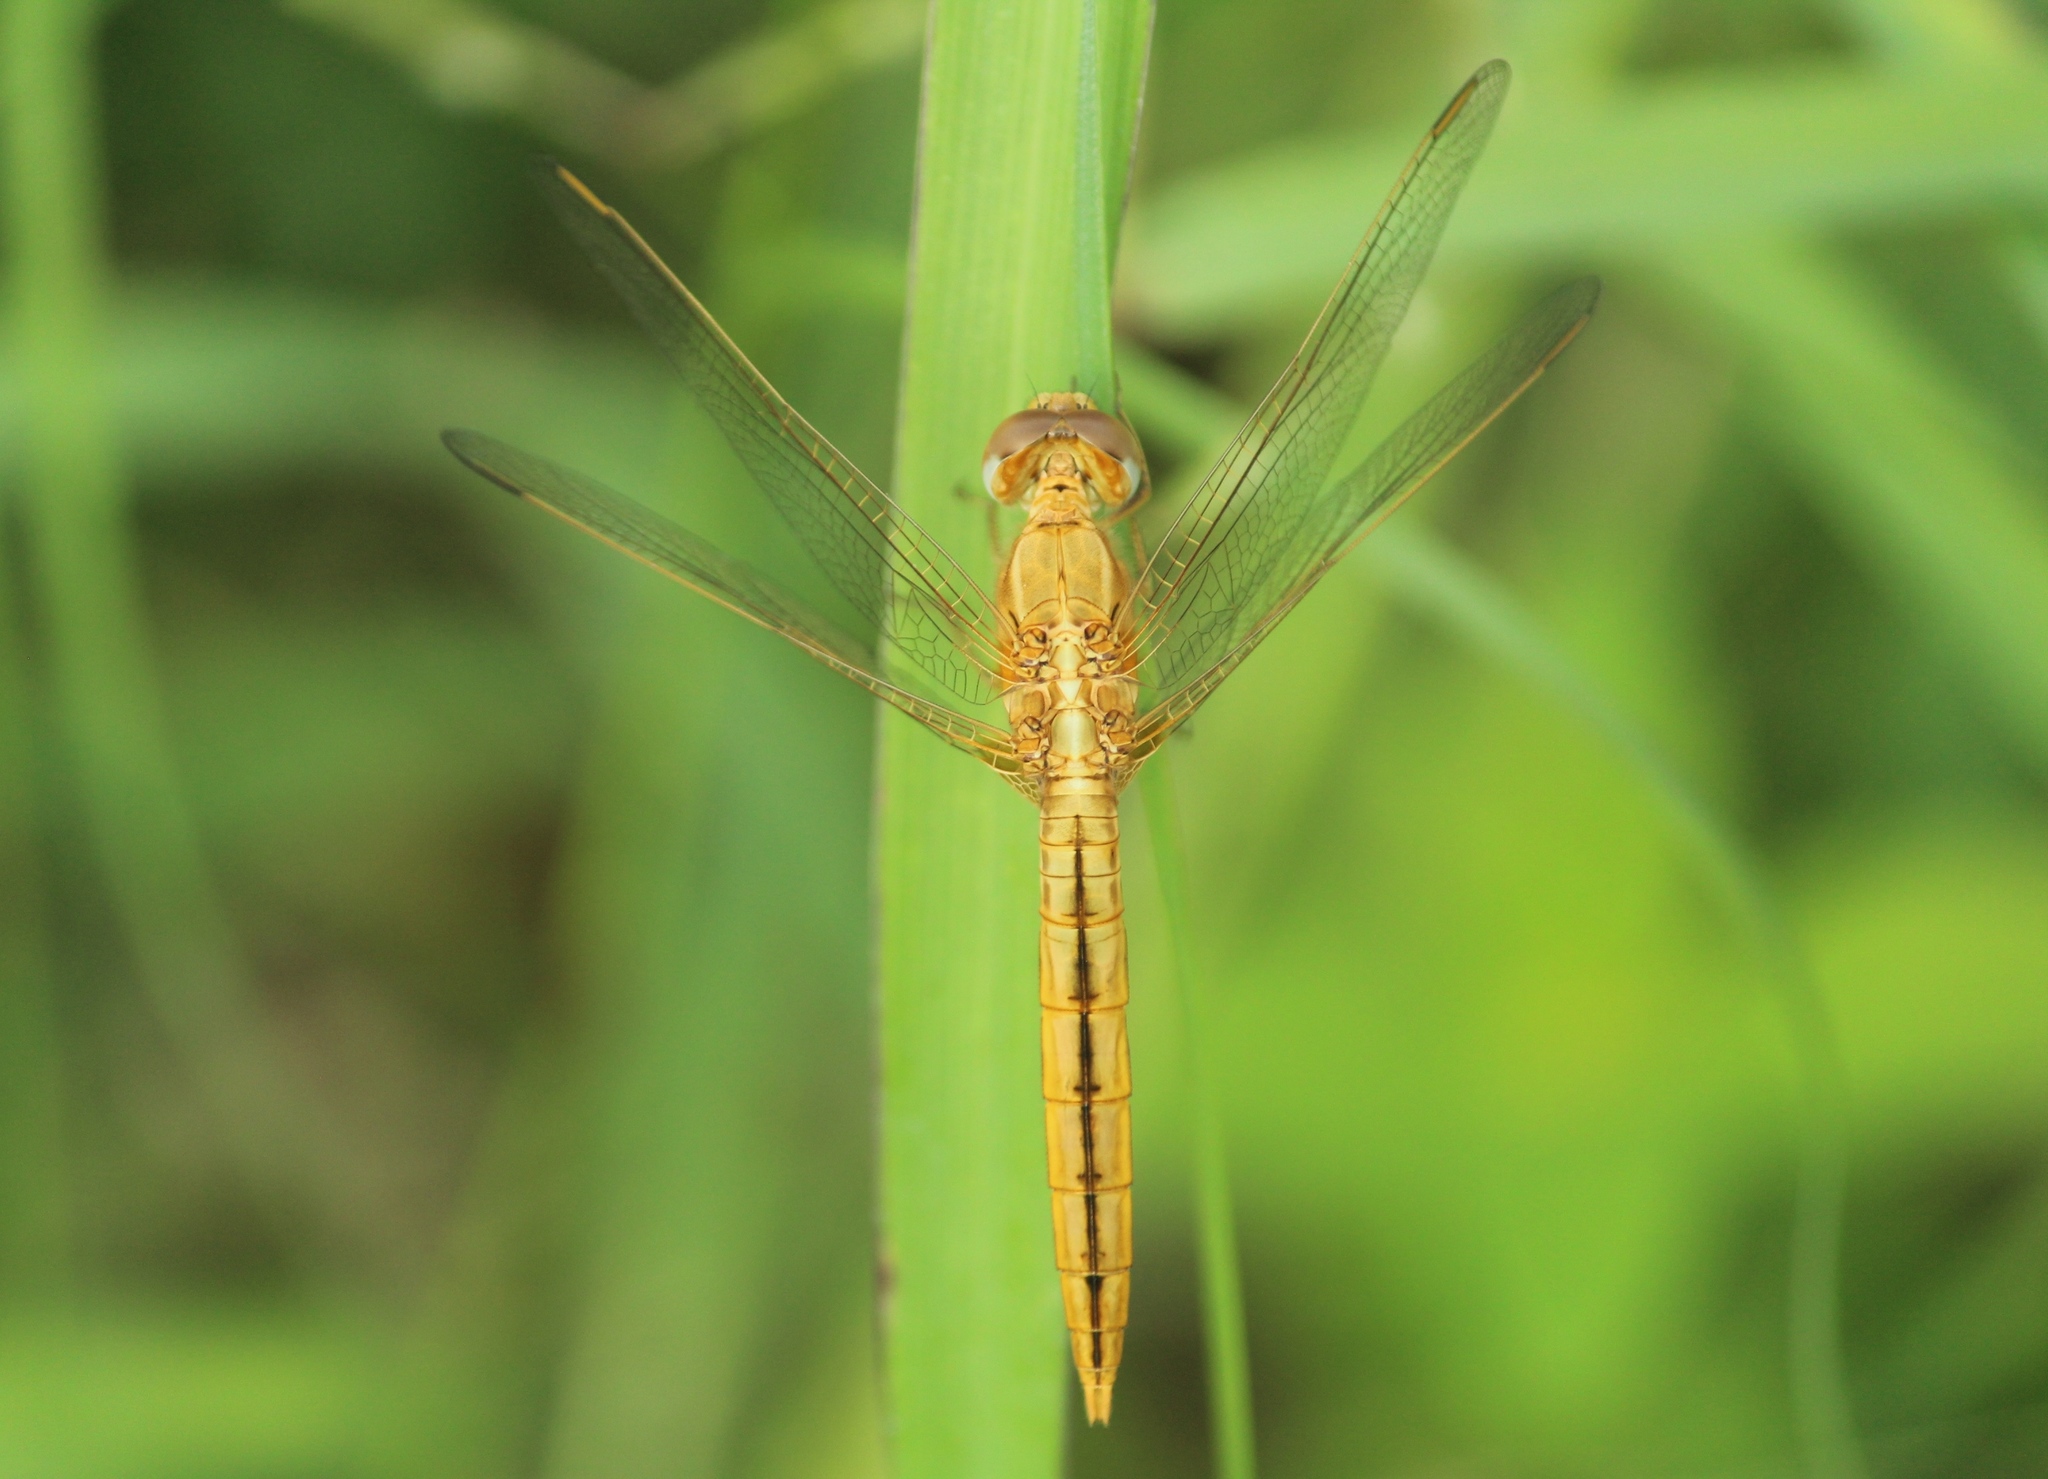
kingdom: Animalia
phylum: Arthropoda
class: Insecta
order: Odonata
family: Libellulidae
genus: Crocothemis
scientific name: Crocothemis servilia
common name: Scarlet skimmer
